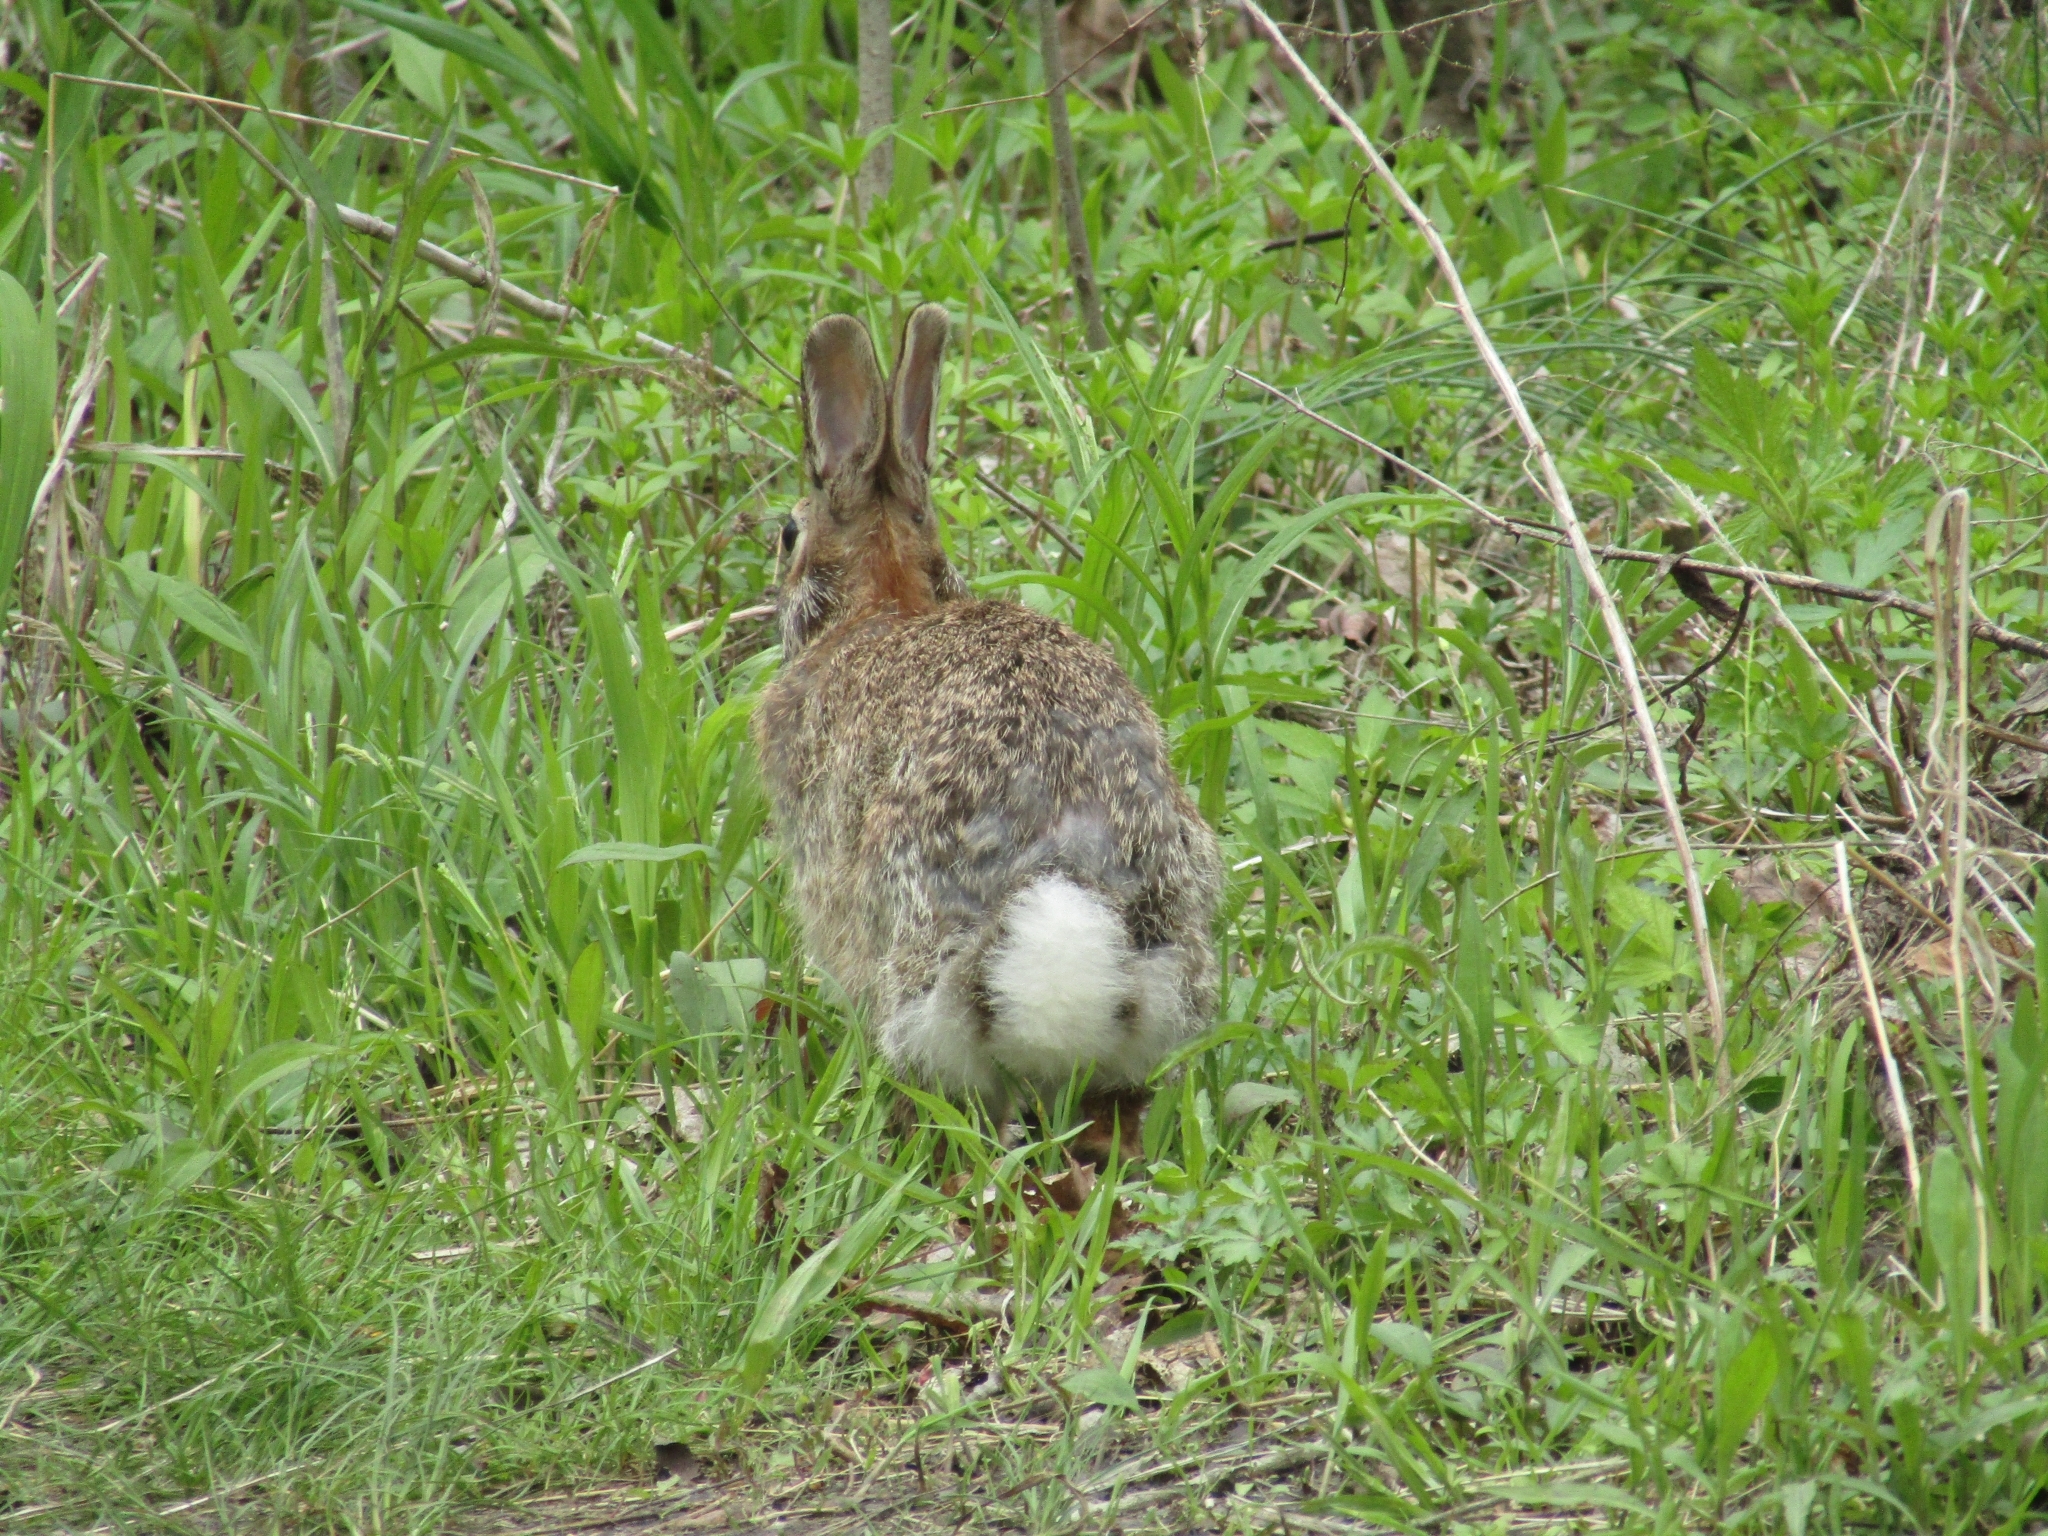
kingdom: Animalia
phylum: Chordata
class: Mammalia
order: Lagomorpha
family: Leporidae
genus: Sylvilagus
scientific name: Sylvilagus floridanus
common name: Eastern cottontail
